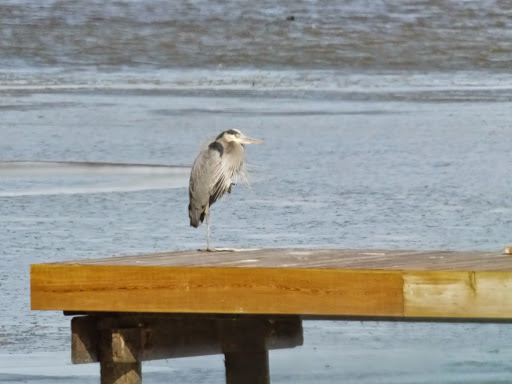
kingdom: Animalia
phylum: Chordata
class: Aves
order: Pelecaniformes
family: Ardeidae
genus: Ardea
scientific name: Ardea herodias
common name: Great blue heron
